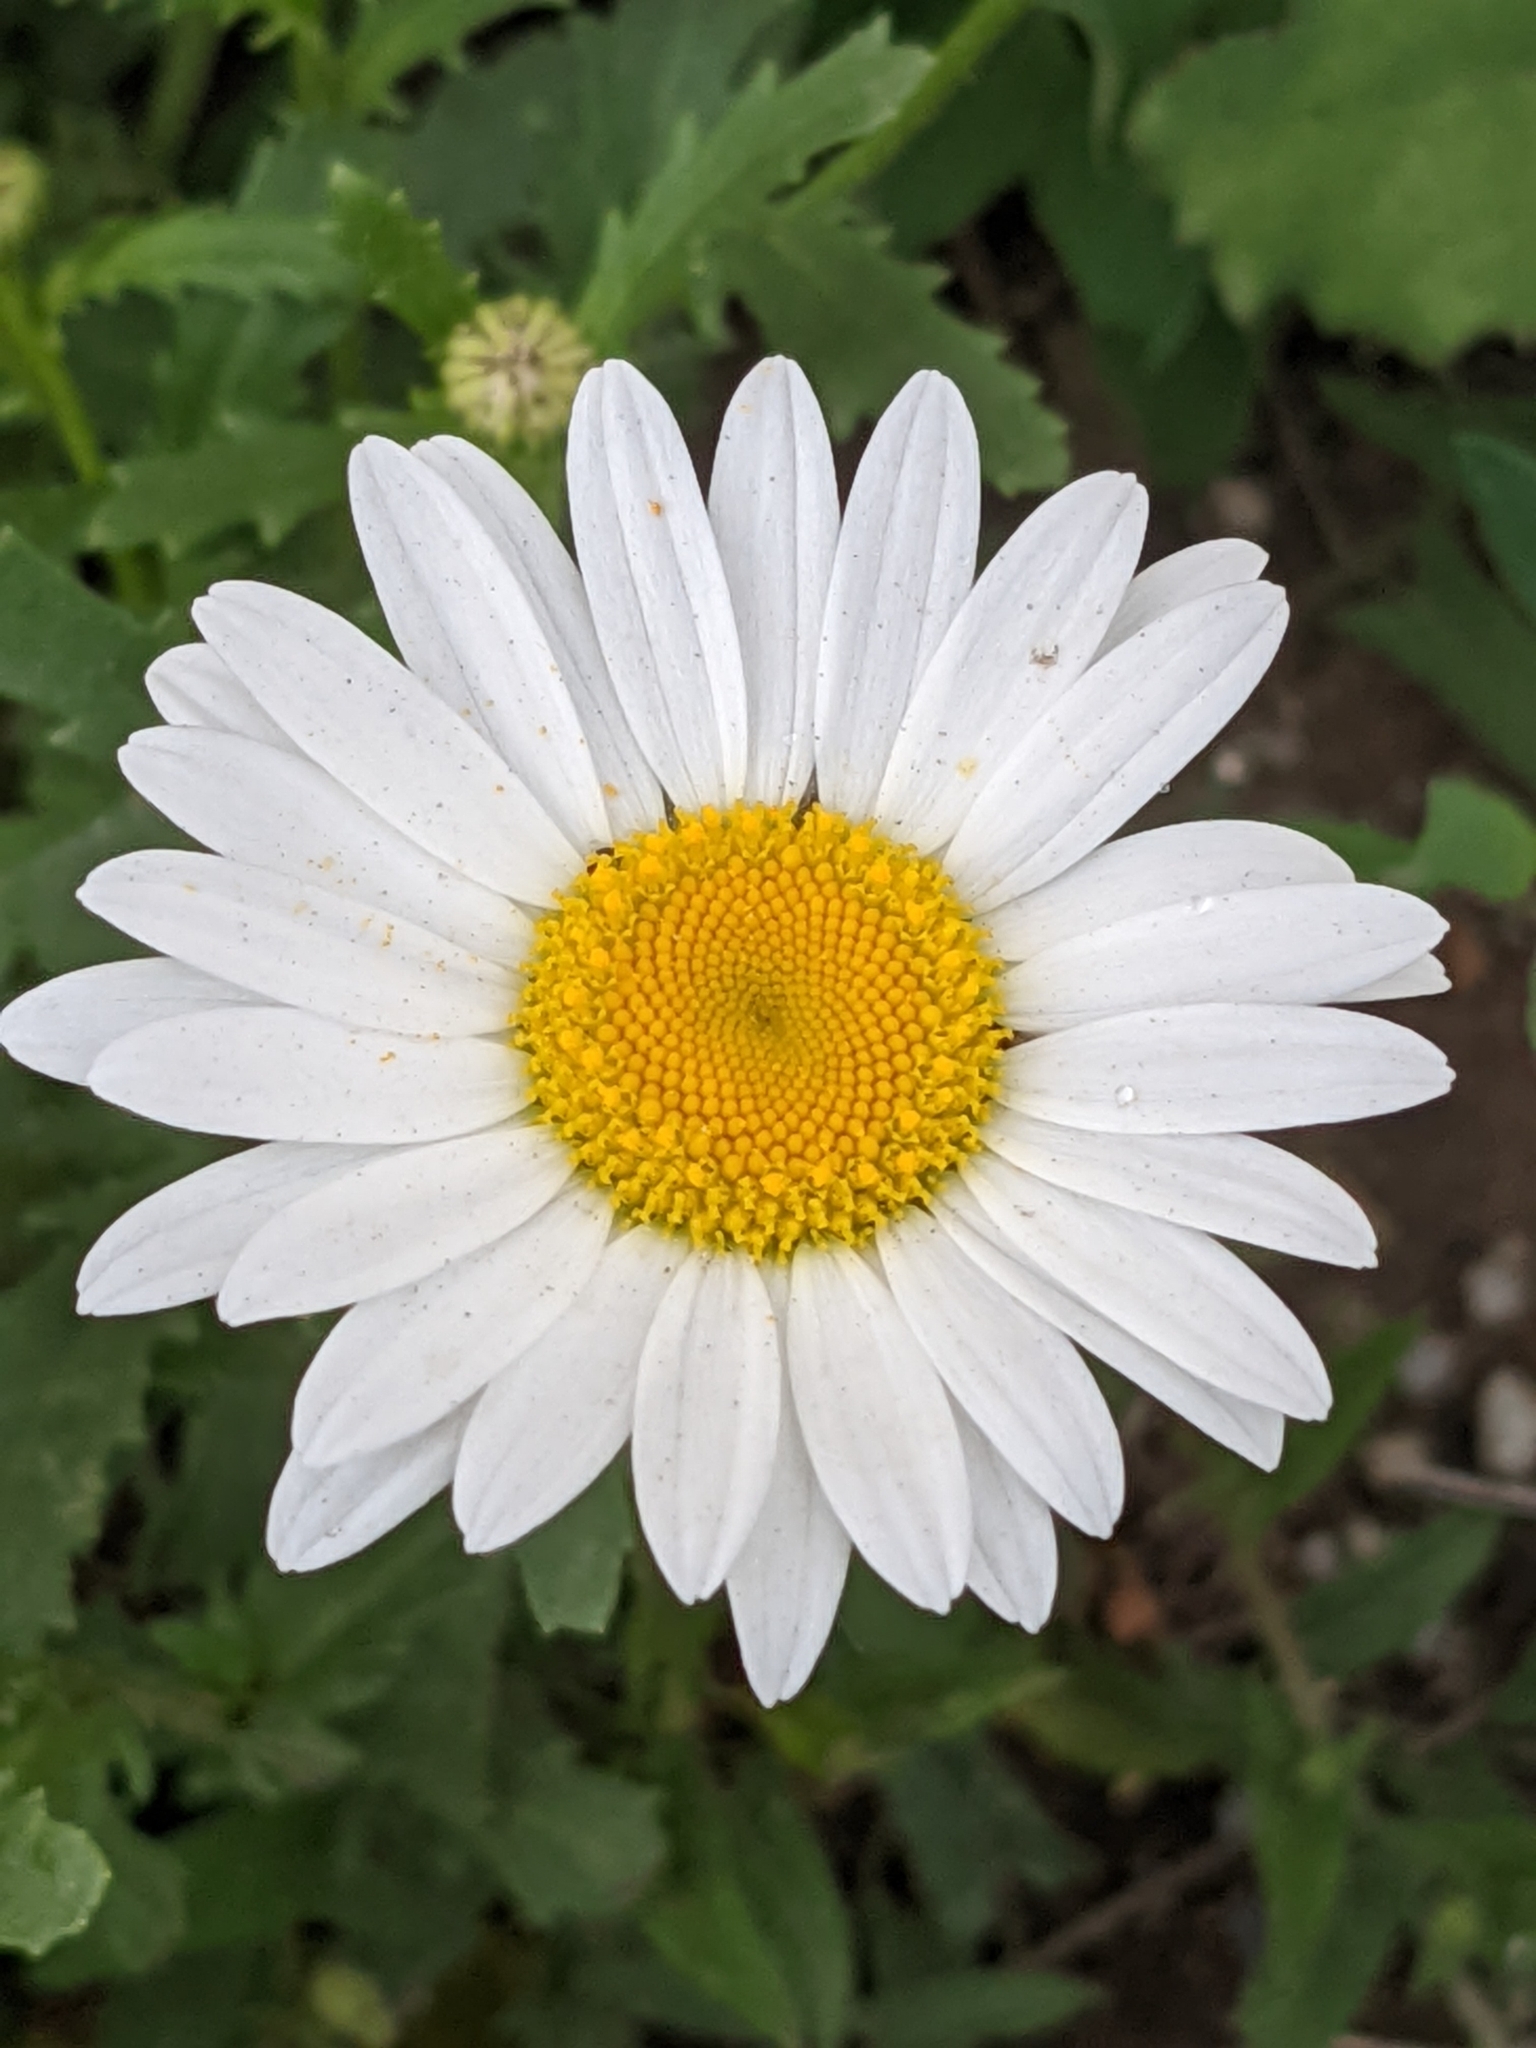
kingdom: Plantae
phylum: Tracheophyta
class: Magnoliopsida
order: Asterales
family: Asteraceae
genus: Leucanthemum
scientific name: Leucanthemum vulgare
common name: Oxeye daisy
